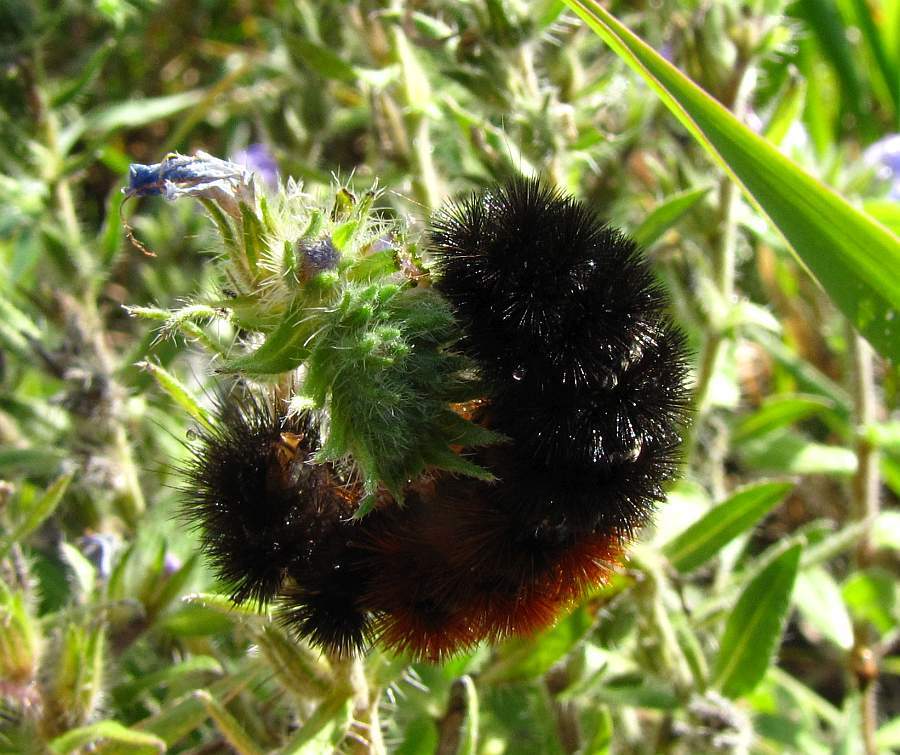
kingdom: Animalia
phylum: Arthropoda
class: Insecta
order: Lepidoptera
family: Erebidae
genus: Pyrrharctia
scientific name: Pyrrharctia isabella
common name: Isabella tiger moth
